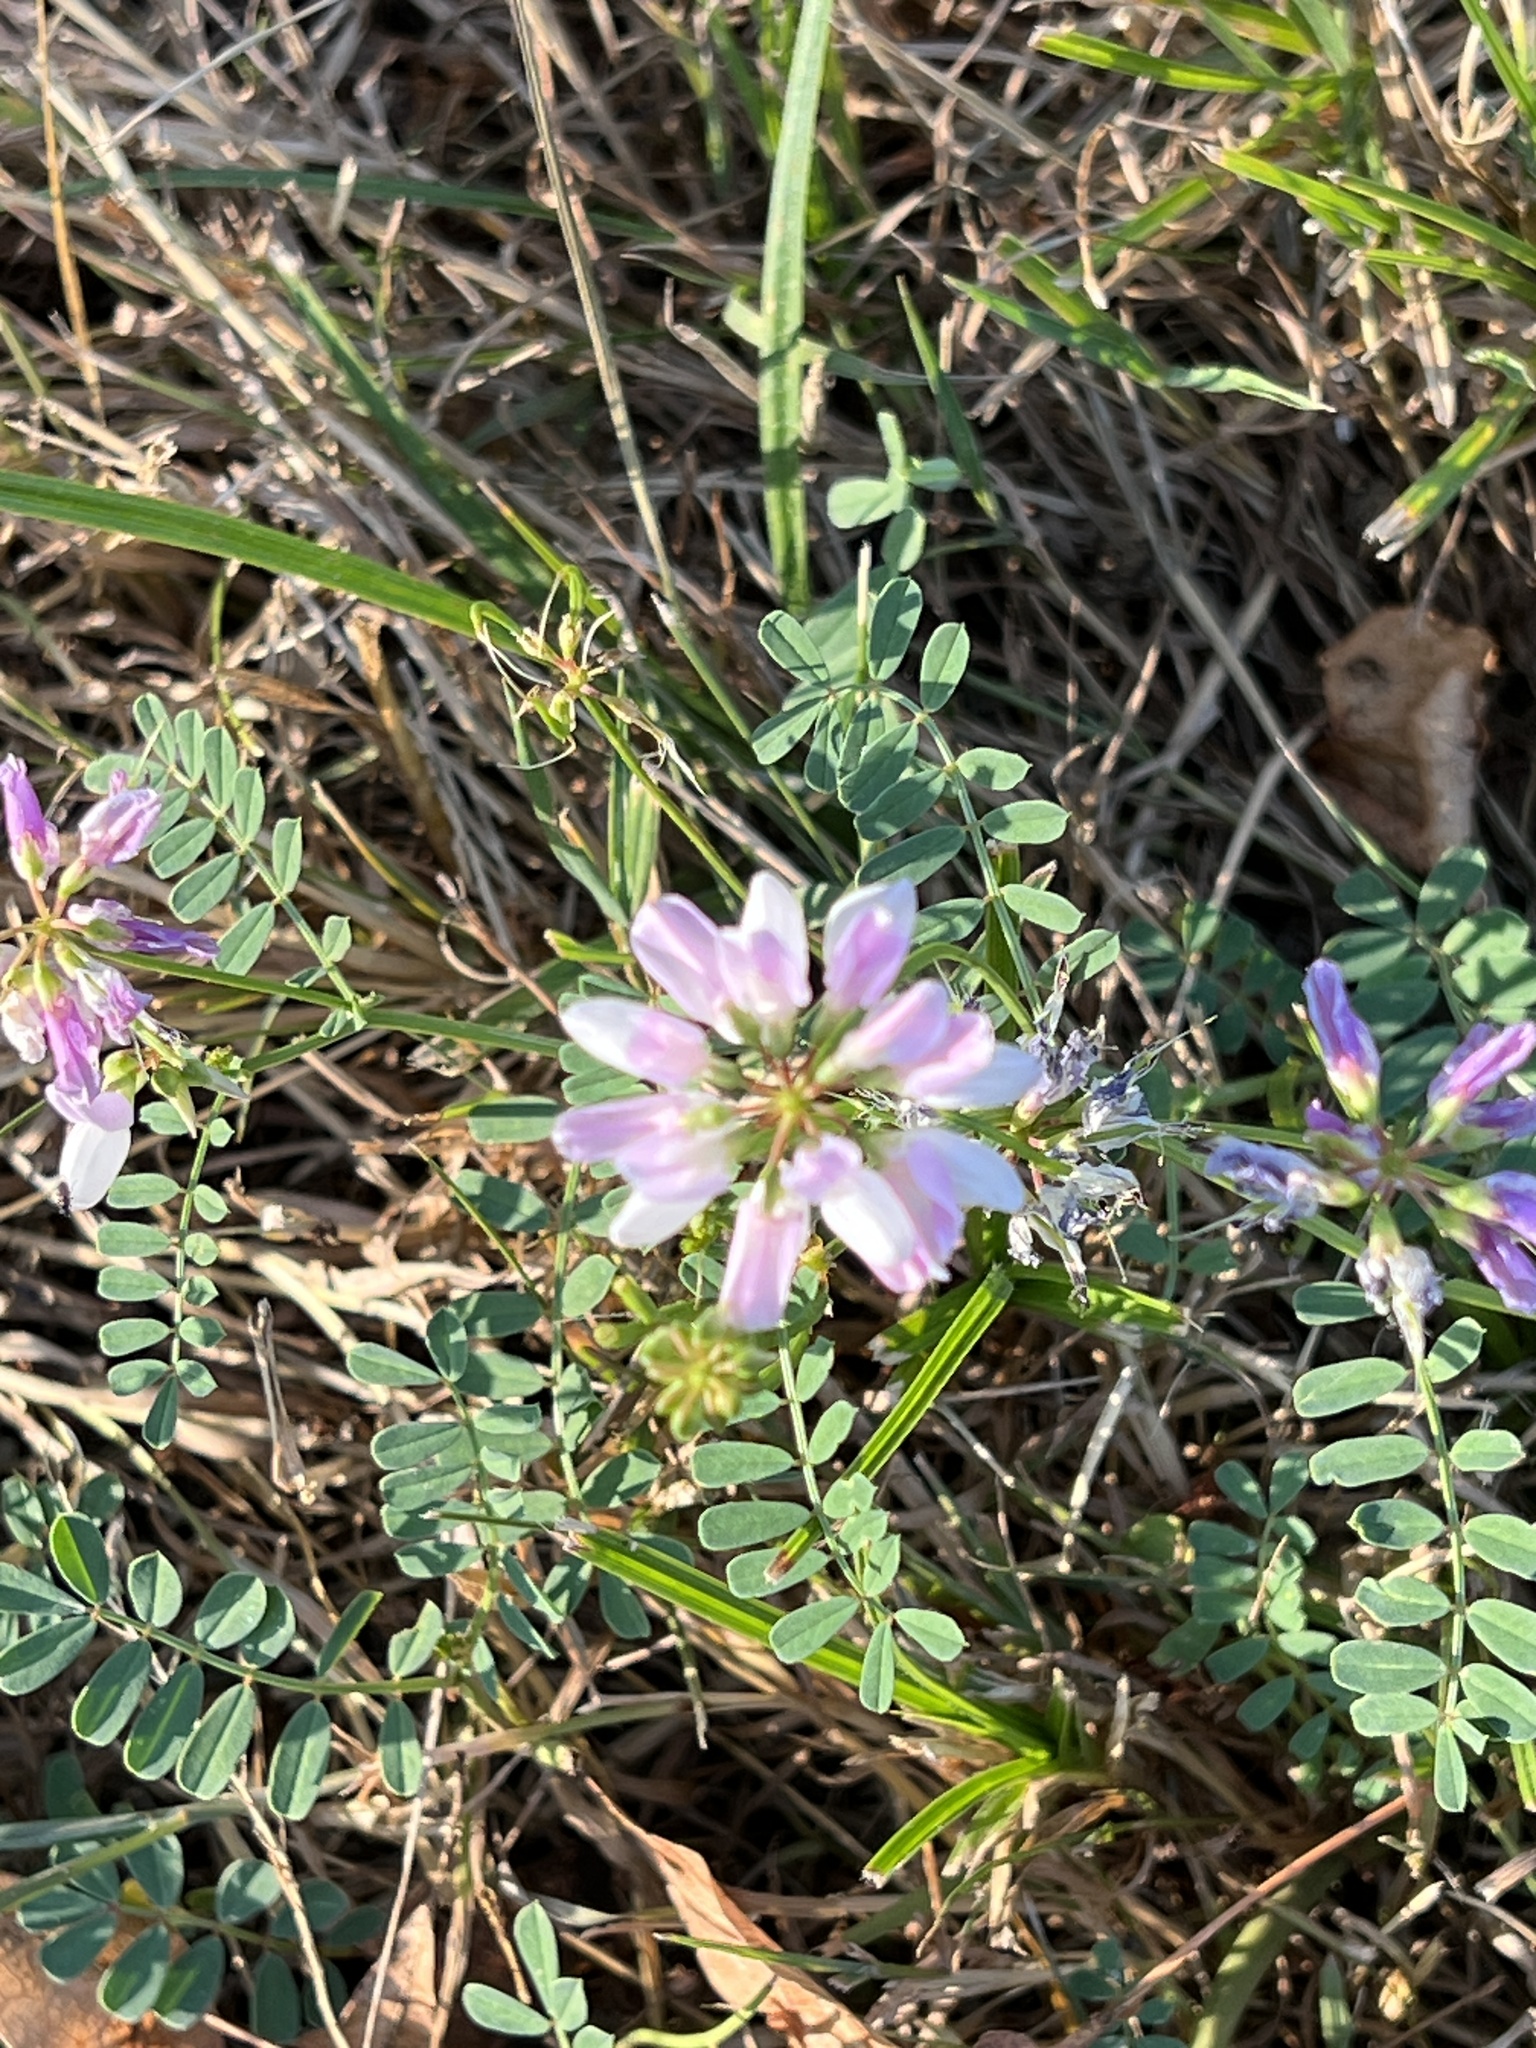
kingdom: Plantae
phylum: Tracheophyta
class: Magnoliopsida
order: Fabales
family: Fabaceae
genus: Coronilla
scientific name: Coronilla varia
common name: Crownvetch
